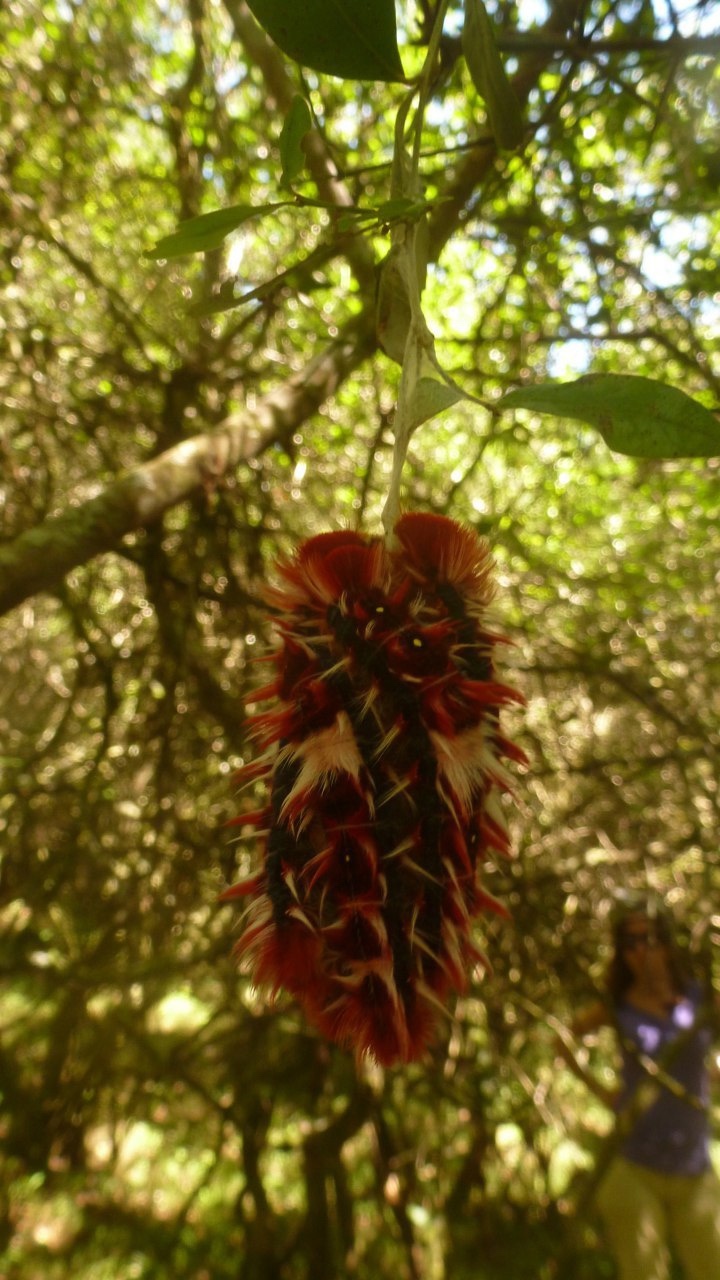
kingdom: Animalia
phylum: Arthropoda
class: Insecta
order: Lepidoptera
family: Nymphalidae
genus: Morpho
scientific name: Morpho epistrophus
